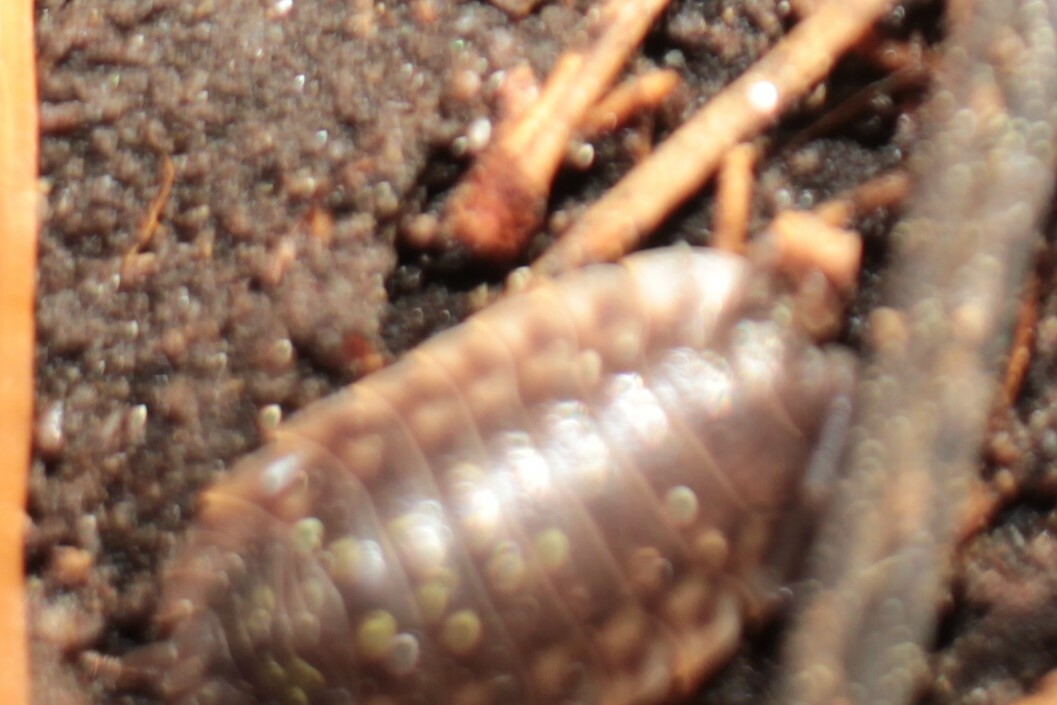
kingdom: Animalia
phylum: Arthropoda
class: Malacostraca
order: Isopoda
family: Oniscidae
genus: Oniscus
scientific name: Oniscus asellus
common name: Common shiny woodlouse
